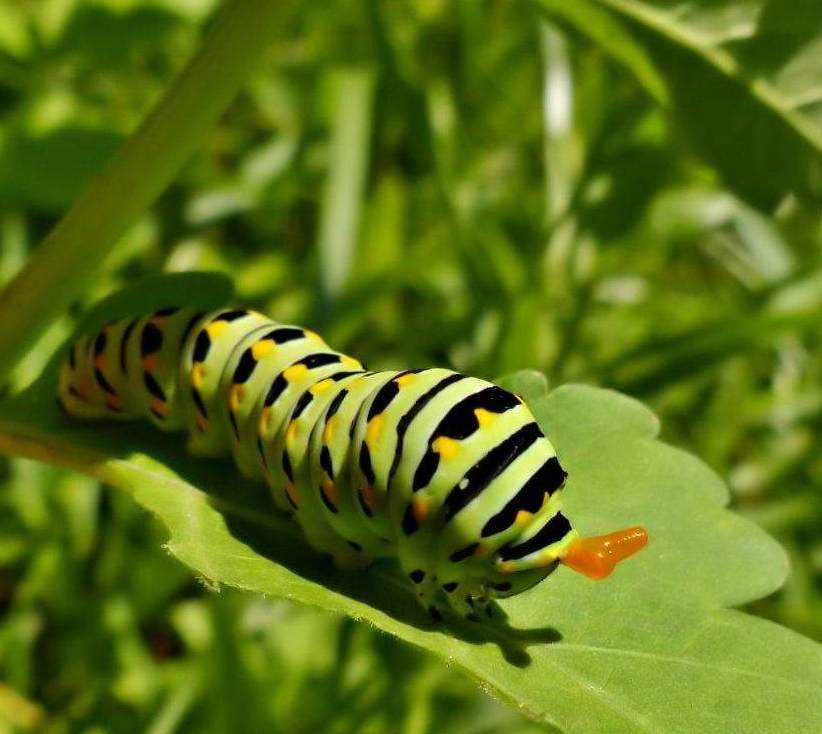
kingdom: Animalia
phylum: Arthropoda
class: Insecta
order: Lepidoptera
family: Papilionidae
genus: Papilio
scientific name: Papilio polyxenes
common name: Black swallowtail
